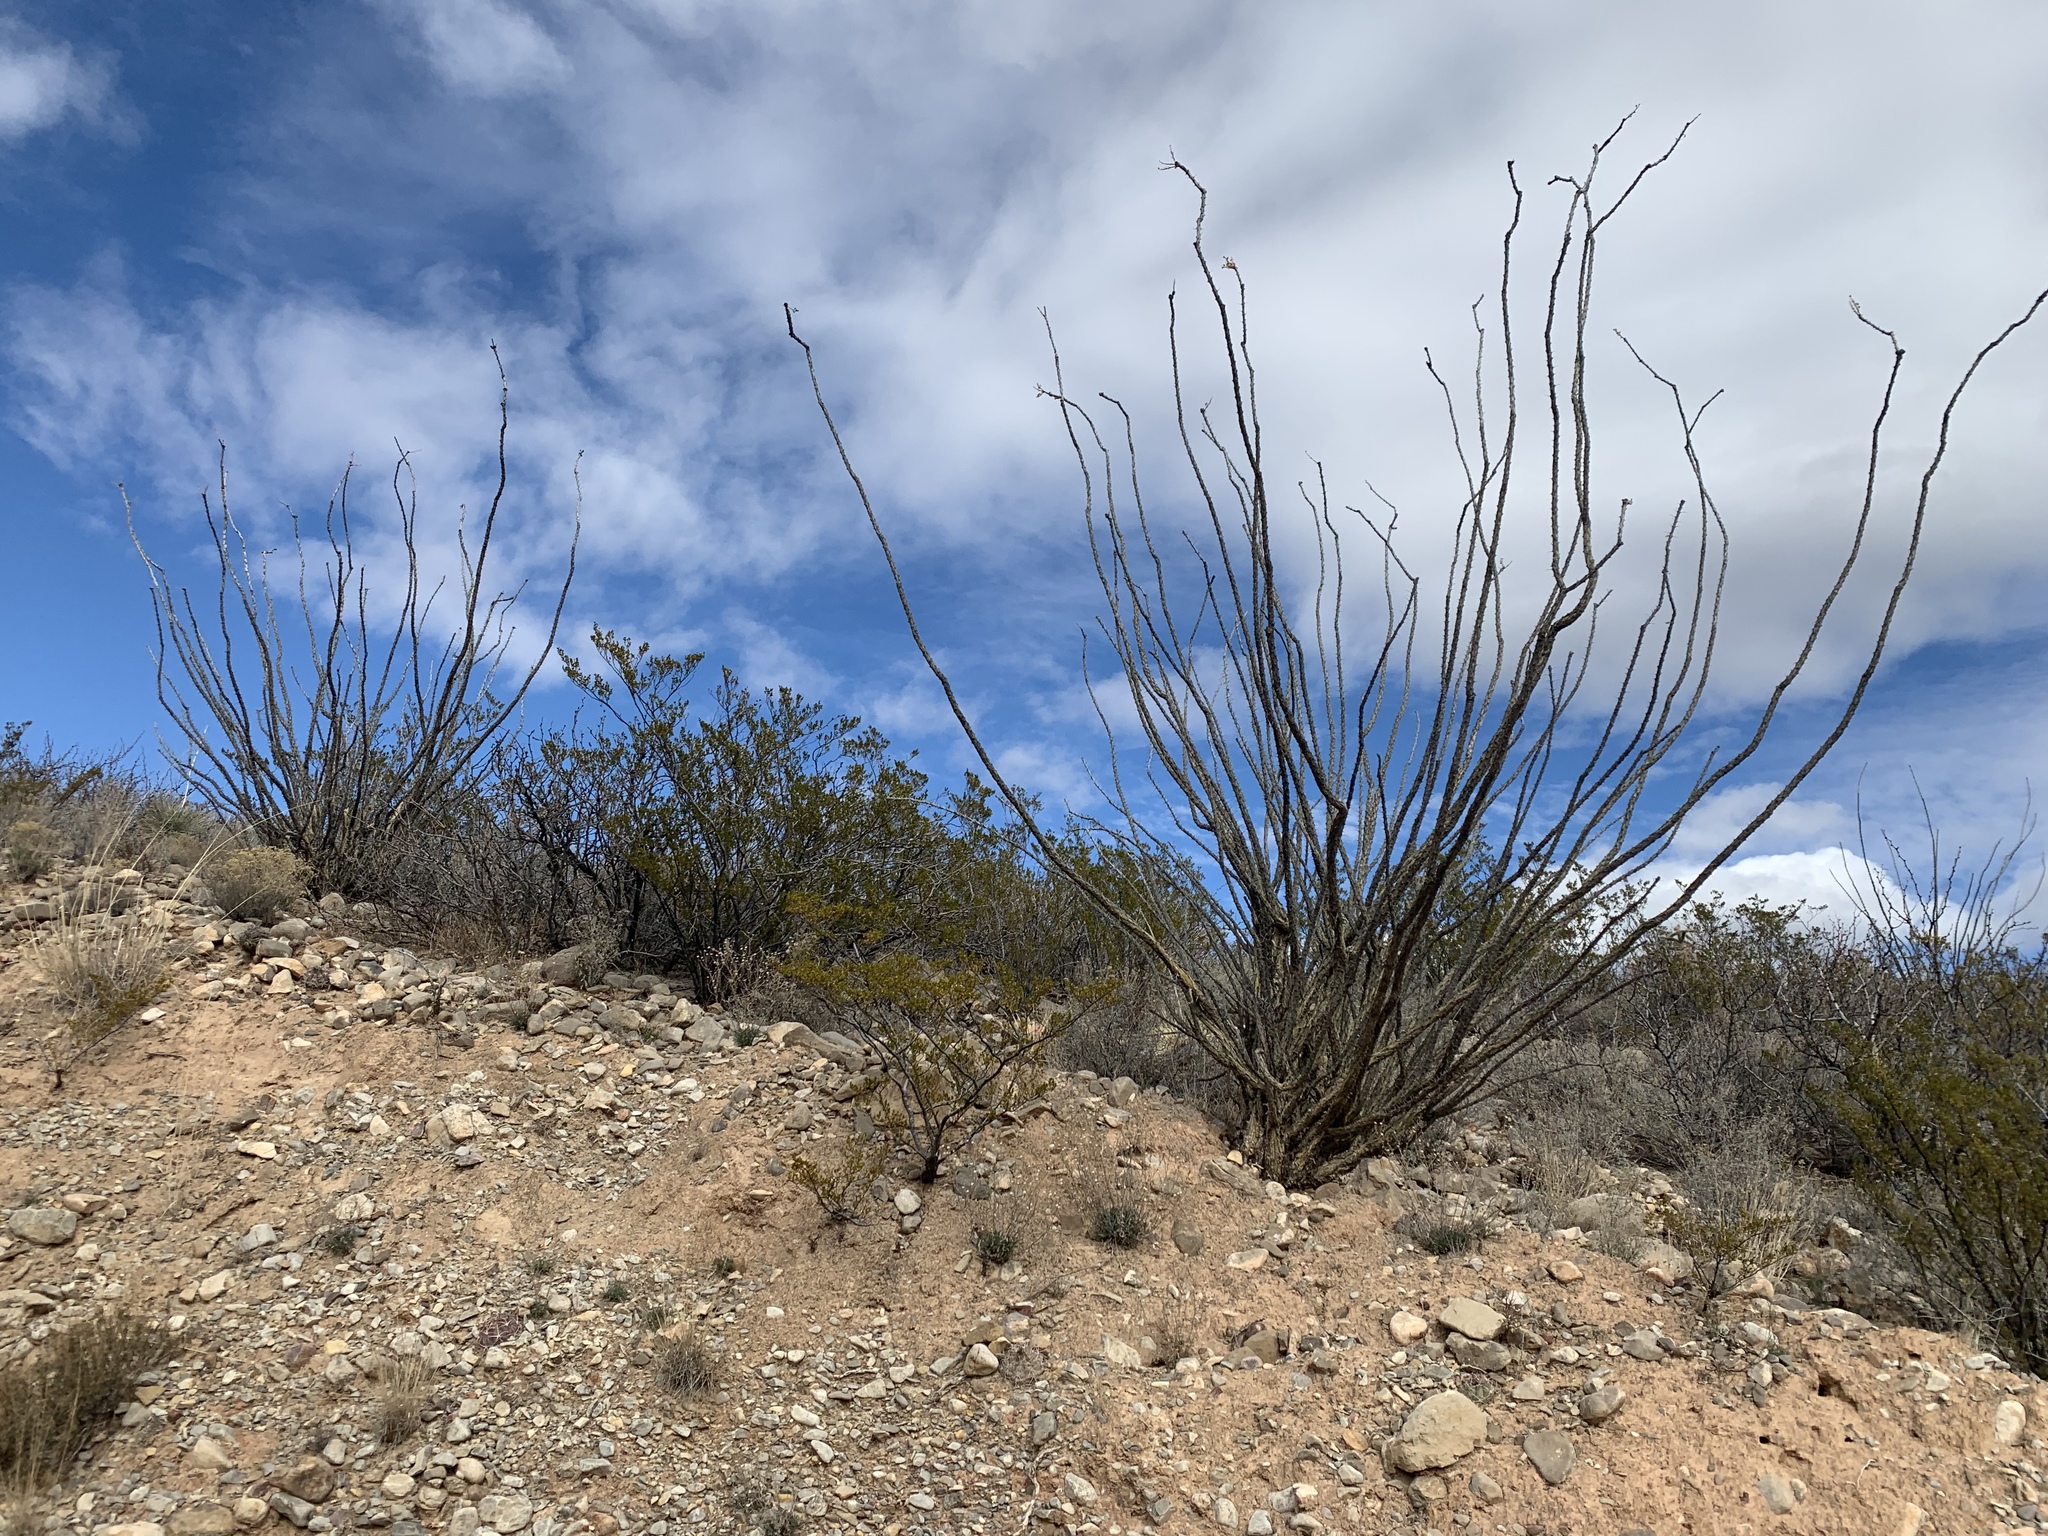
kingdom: Plantae
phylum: Tracheophyta
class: Magnoliopsida
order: Ericales
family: Fouquieriaceae
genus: Fouquieria
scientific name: Fouquieria splendens
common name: Vine-cactus
